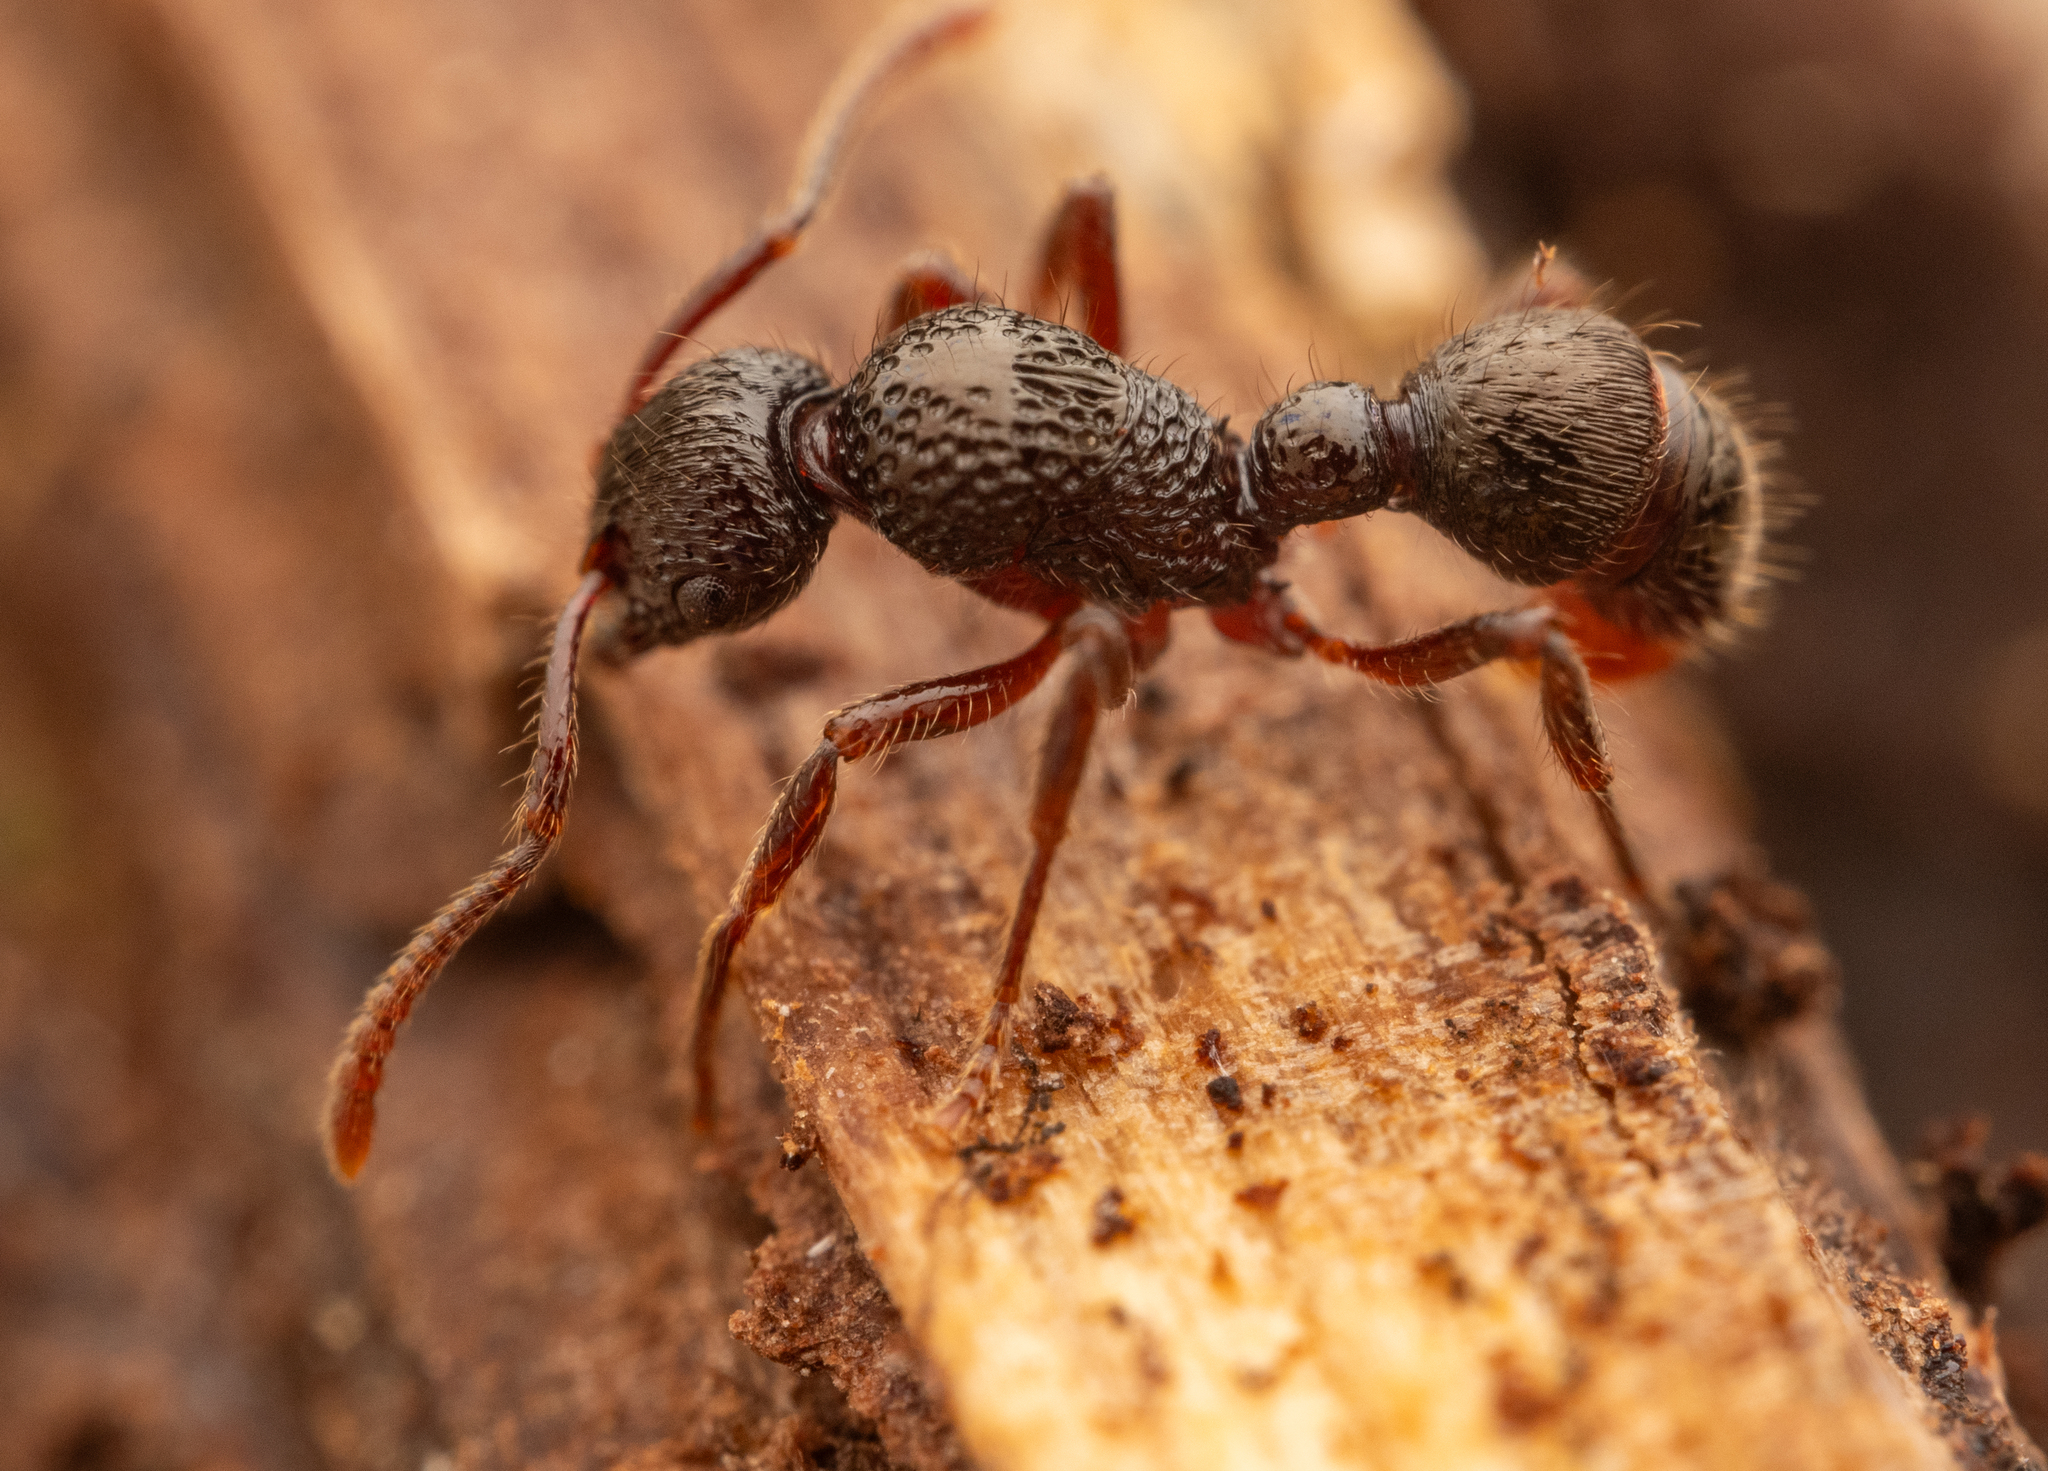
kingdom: Animalia
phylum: Arthropoda
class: Insecta
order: Hymenoptera
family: Formicidae
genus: Stictoponera
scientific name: Stictoponera
